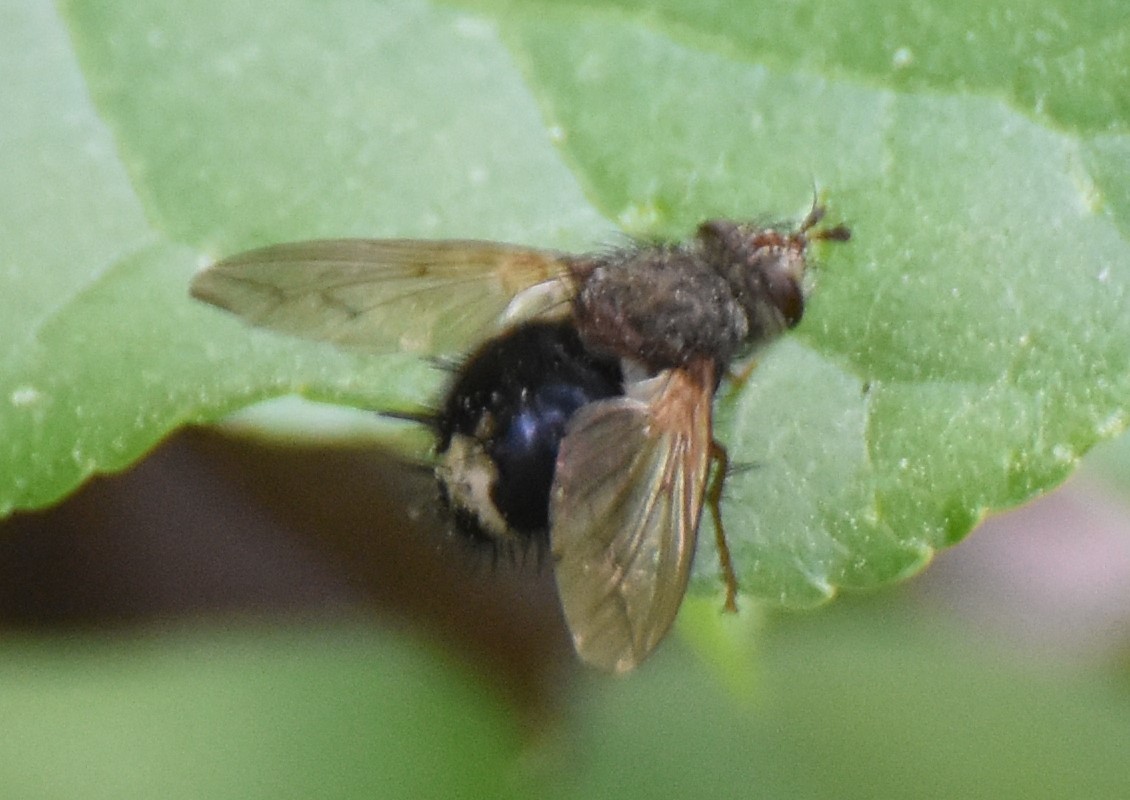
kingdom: Animalia
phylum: Arthropoda
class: Insecta
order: Diptera
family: Tachinidae
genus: Epalpus
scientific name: Epalpus signifer
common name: Early tachinid fly
